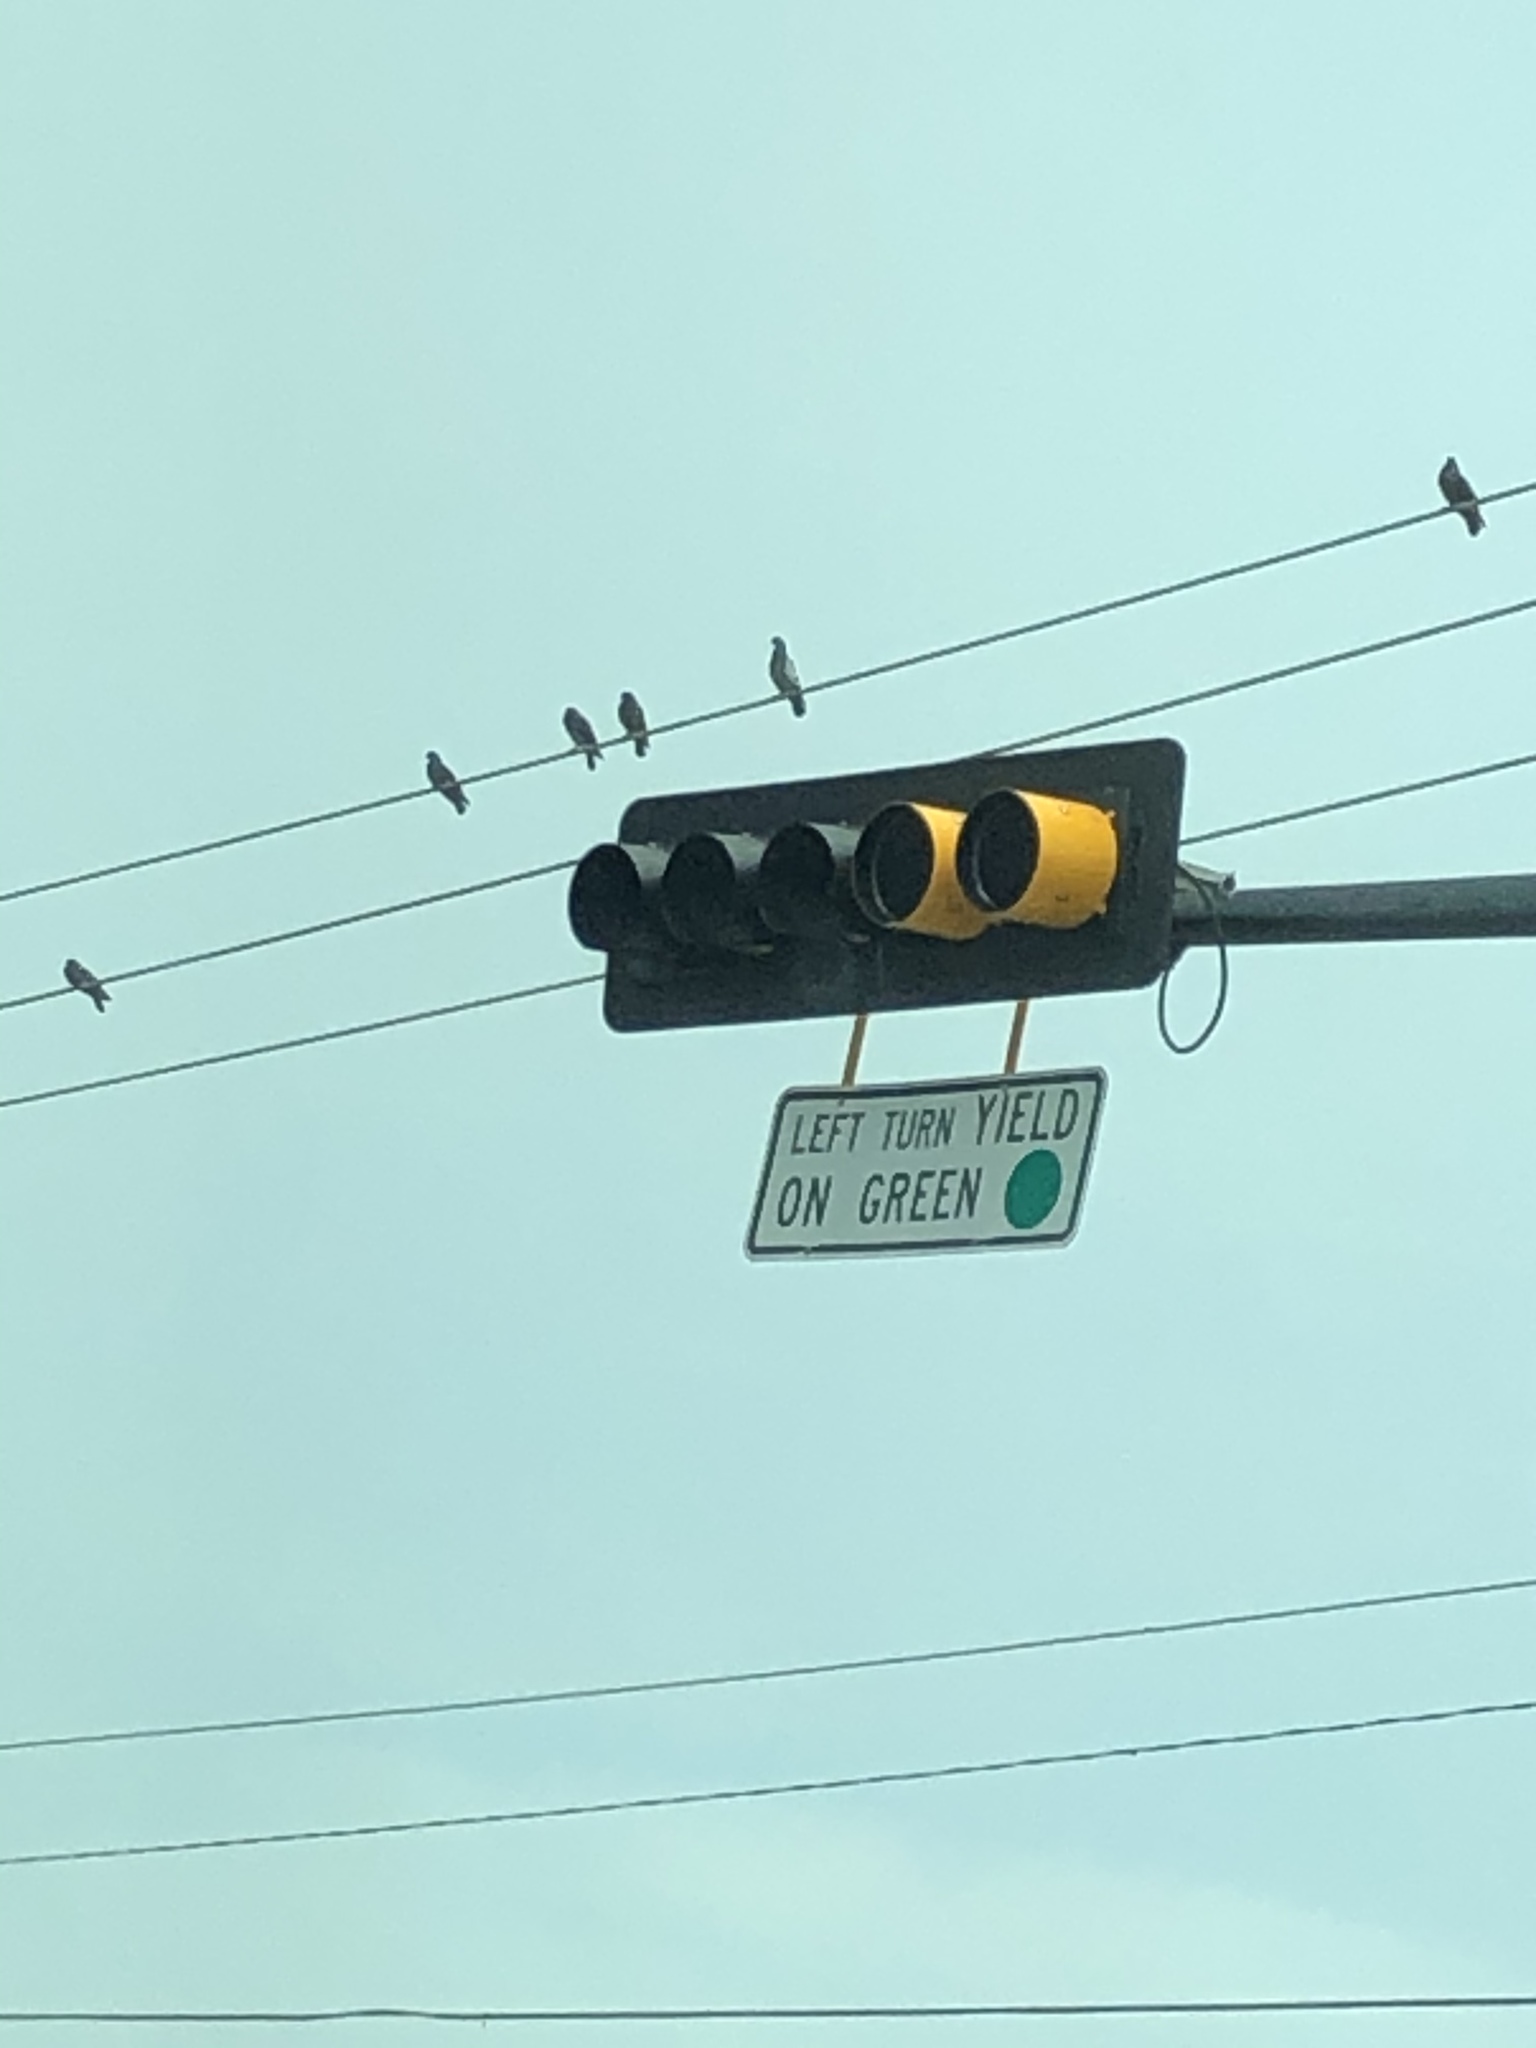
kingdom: Animalia
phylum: Chordata
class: Aves
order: Columbiformes
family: Columbidae
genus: Columba
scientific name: Columba livia
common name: Rock pigeon
